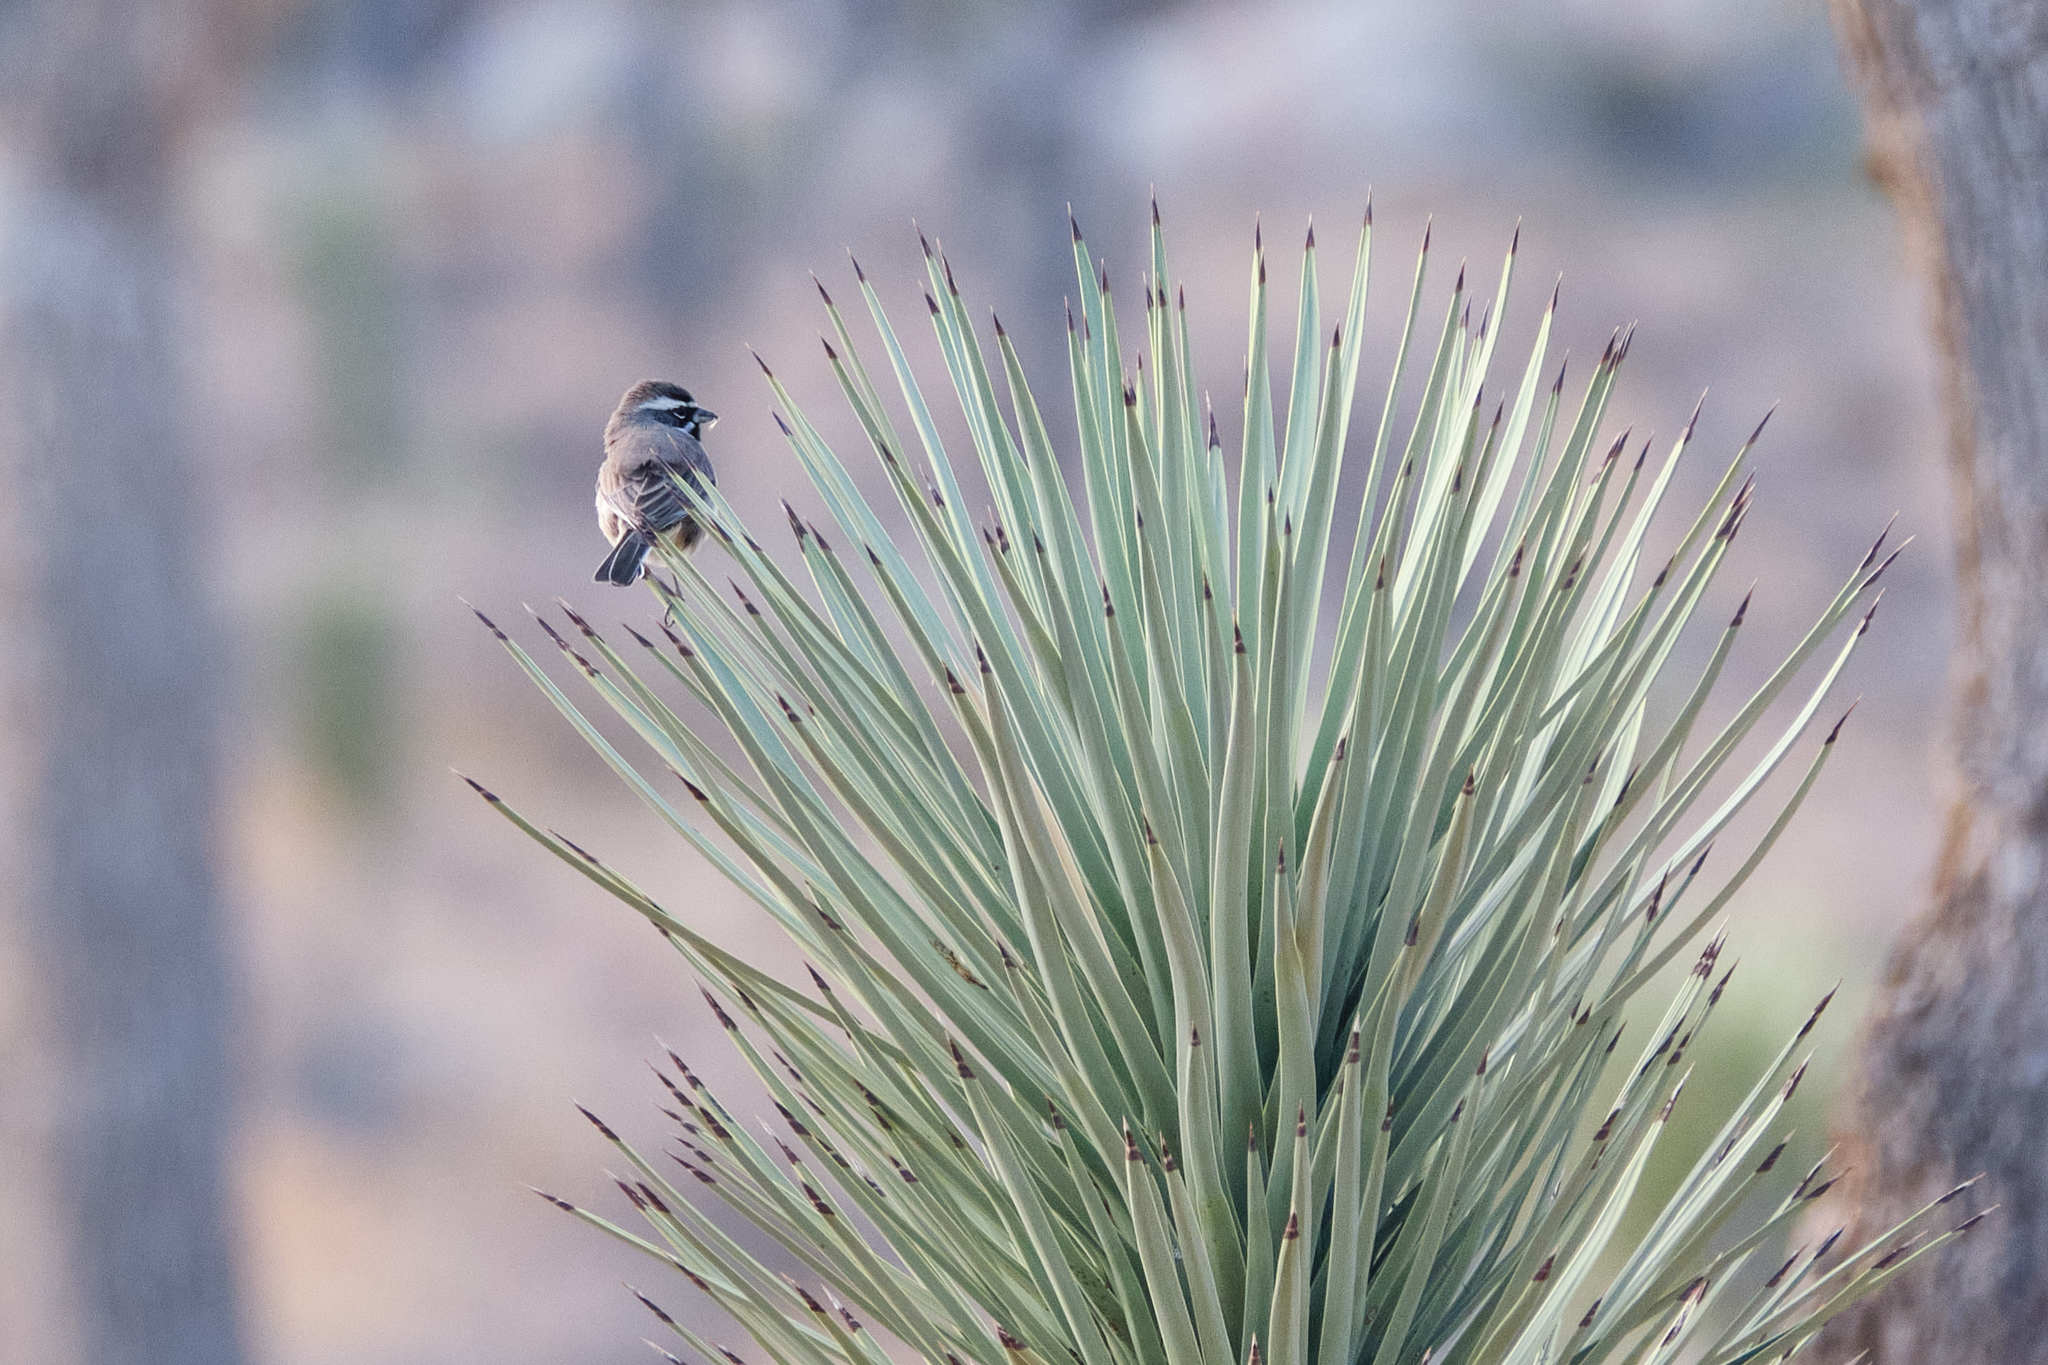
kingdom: Animalia
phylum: Chordata
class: Aves
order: Passeriformes
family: Passerellidae
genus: Amphispiza
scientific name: Amphispiza bilineata
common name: Black-throated sparrow
